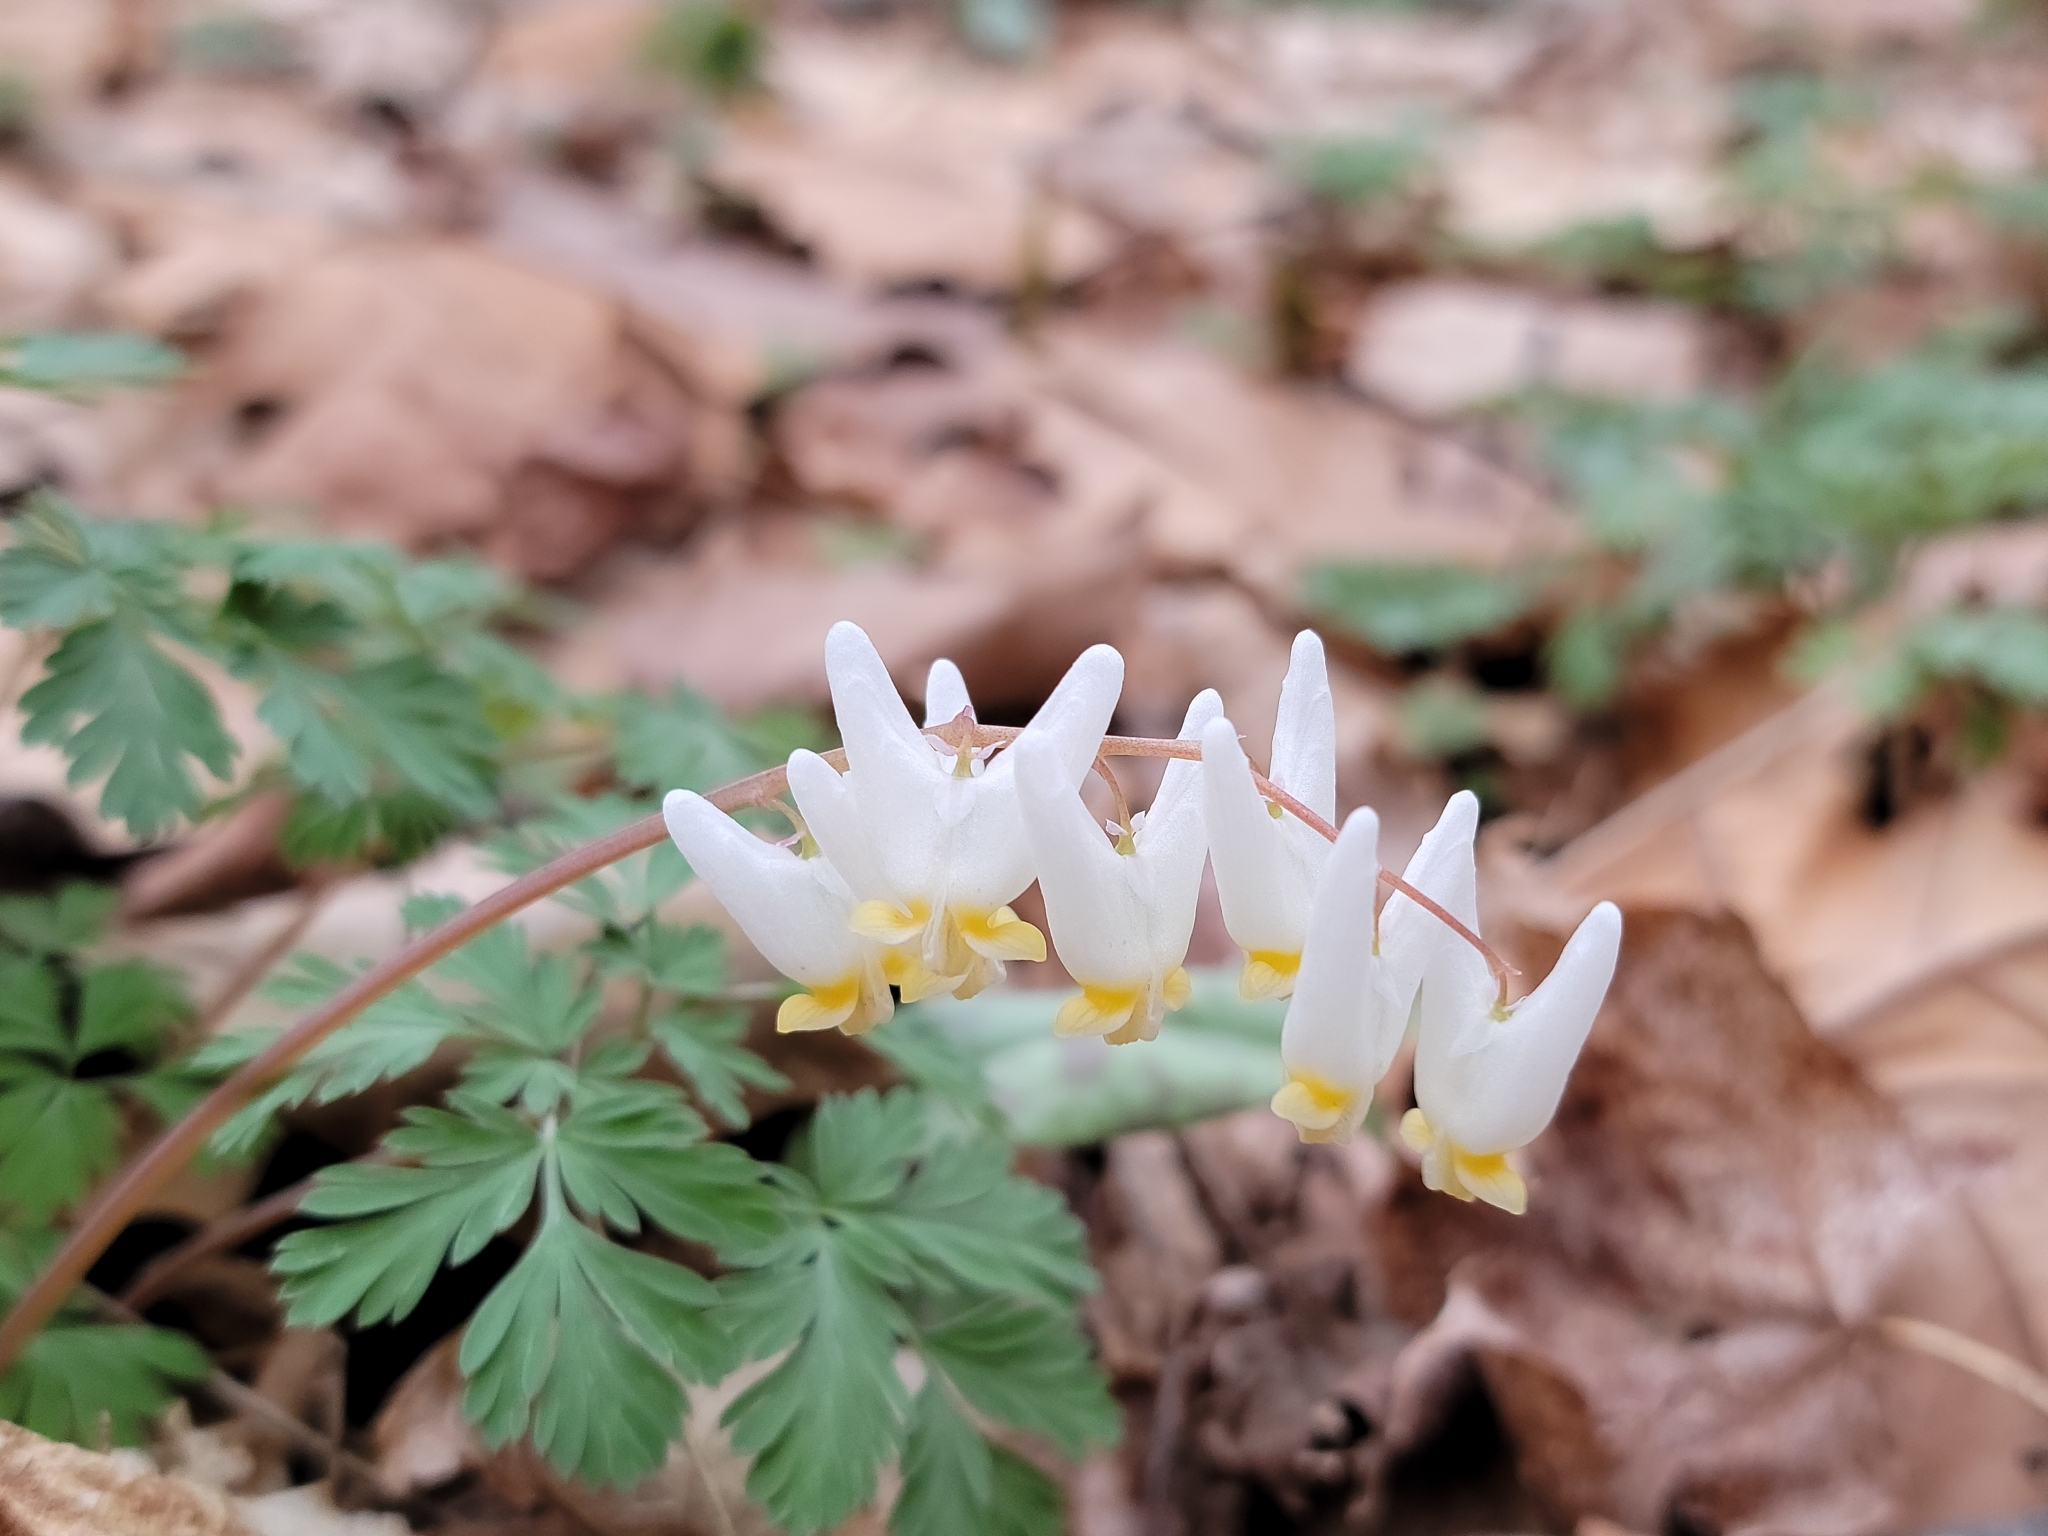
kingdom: Plantae
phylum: Tracheophyta
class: Magnoliopsida
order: Ranunculales
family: Papaveraceae
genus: Dicentra
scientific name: Dicentra cucullaria
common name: Dutchman's breeches
